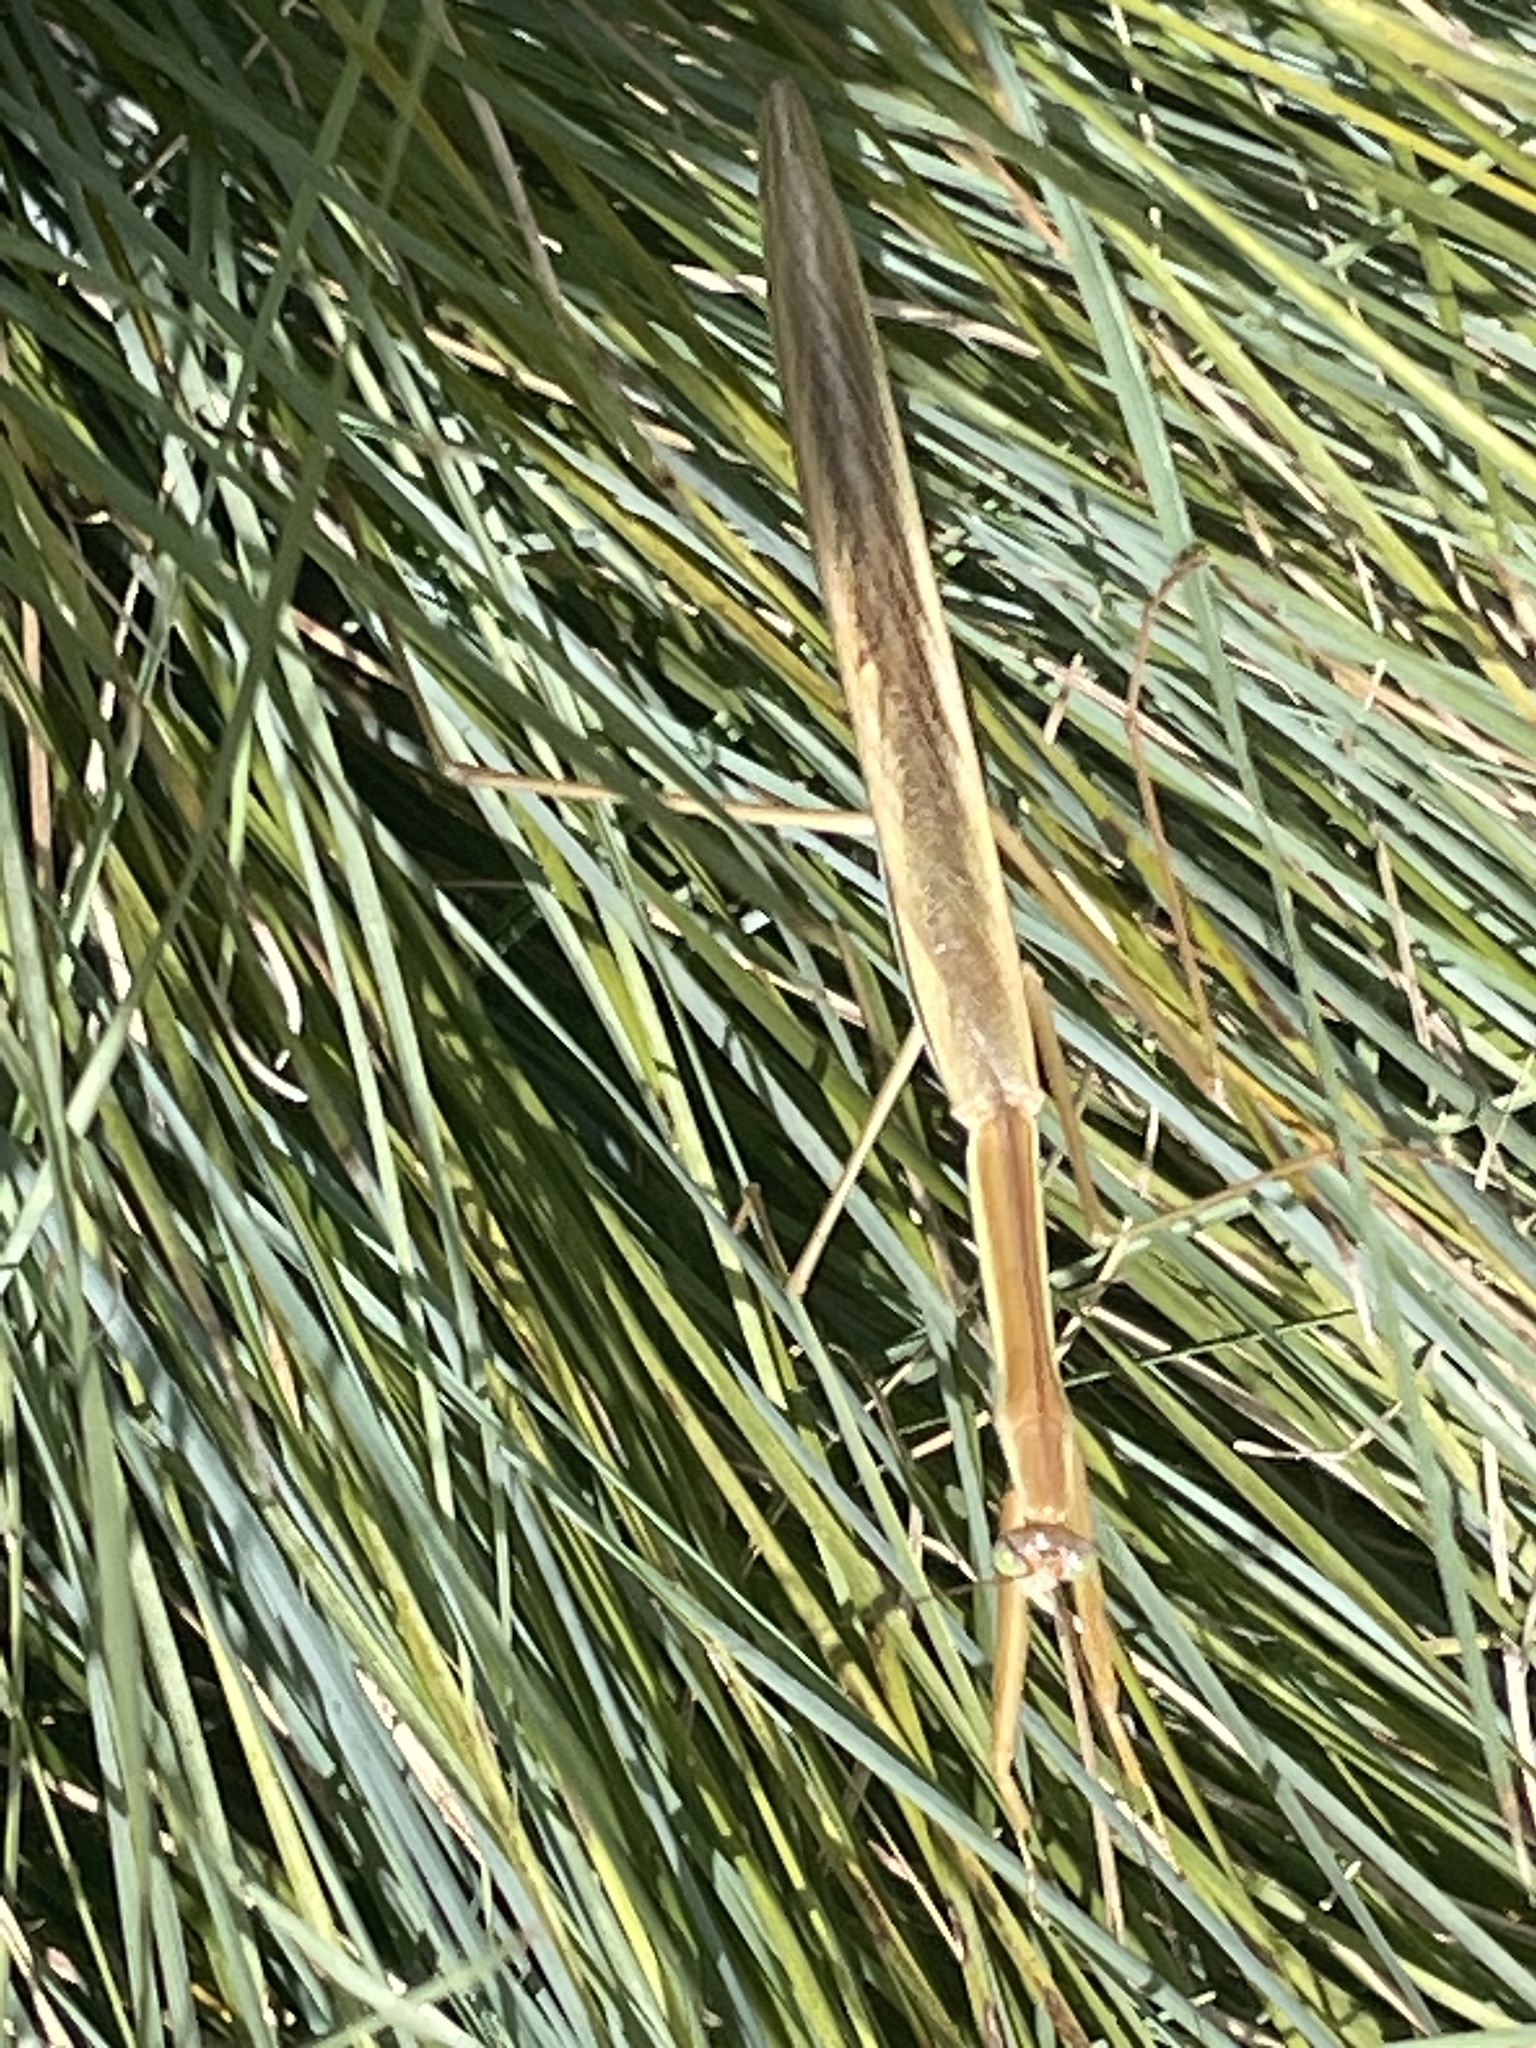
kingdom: Animalia
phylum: Arthropoda
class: Insecta
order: Mantodea
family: Mantidae
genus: Tenodera
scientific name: Tenodera australasiae
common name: Purple-winged mantis
